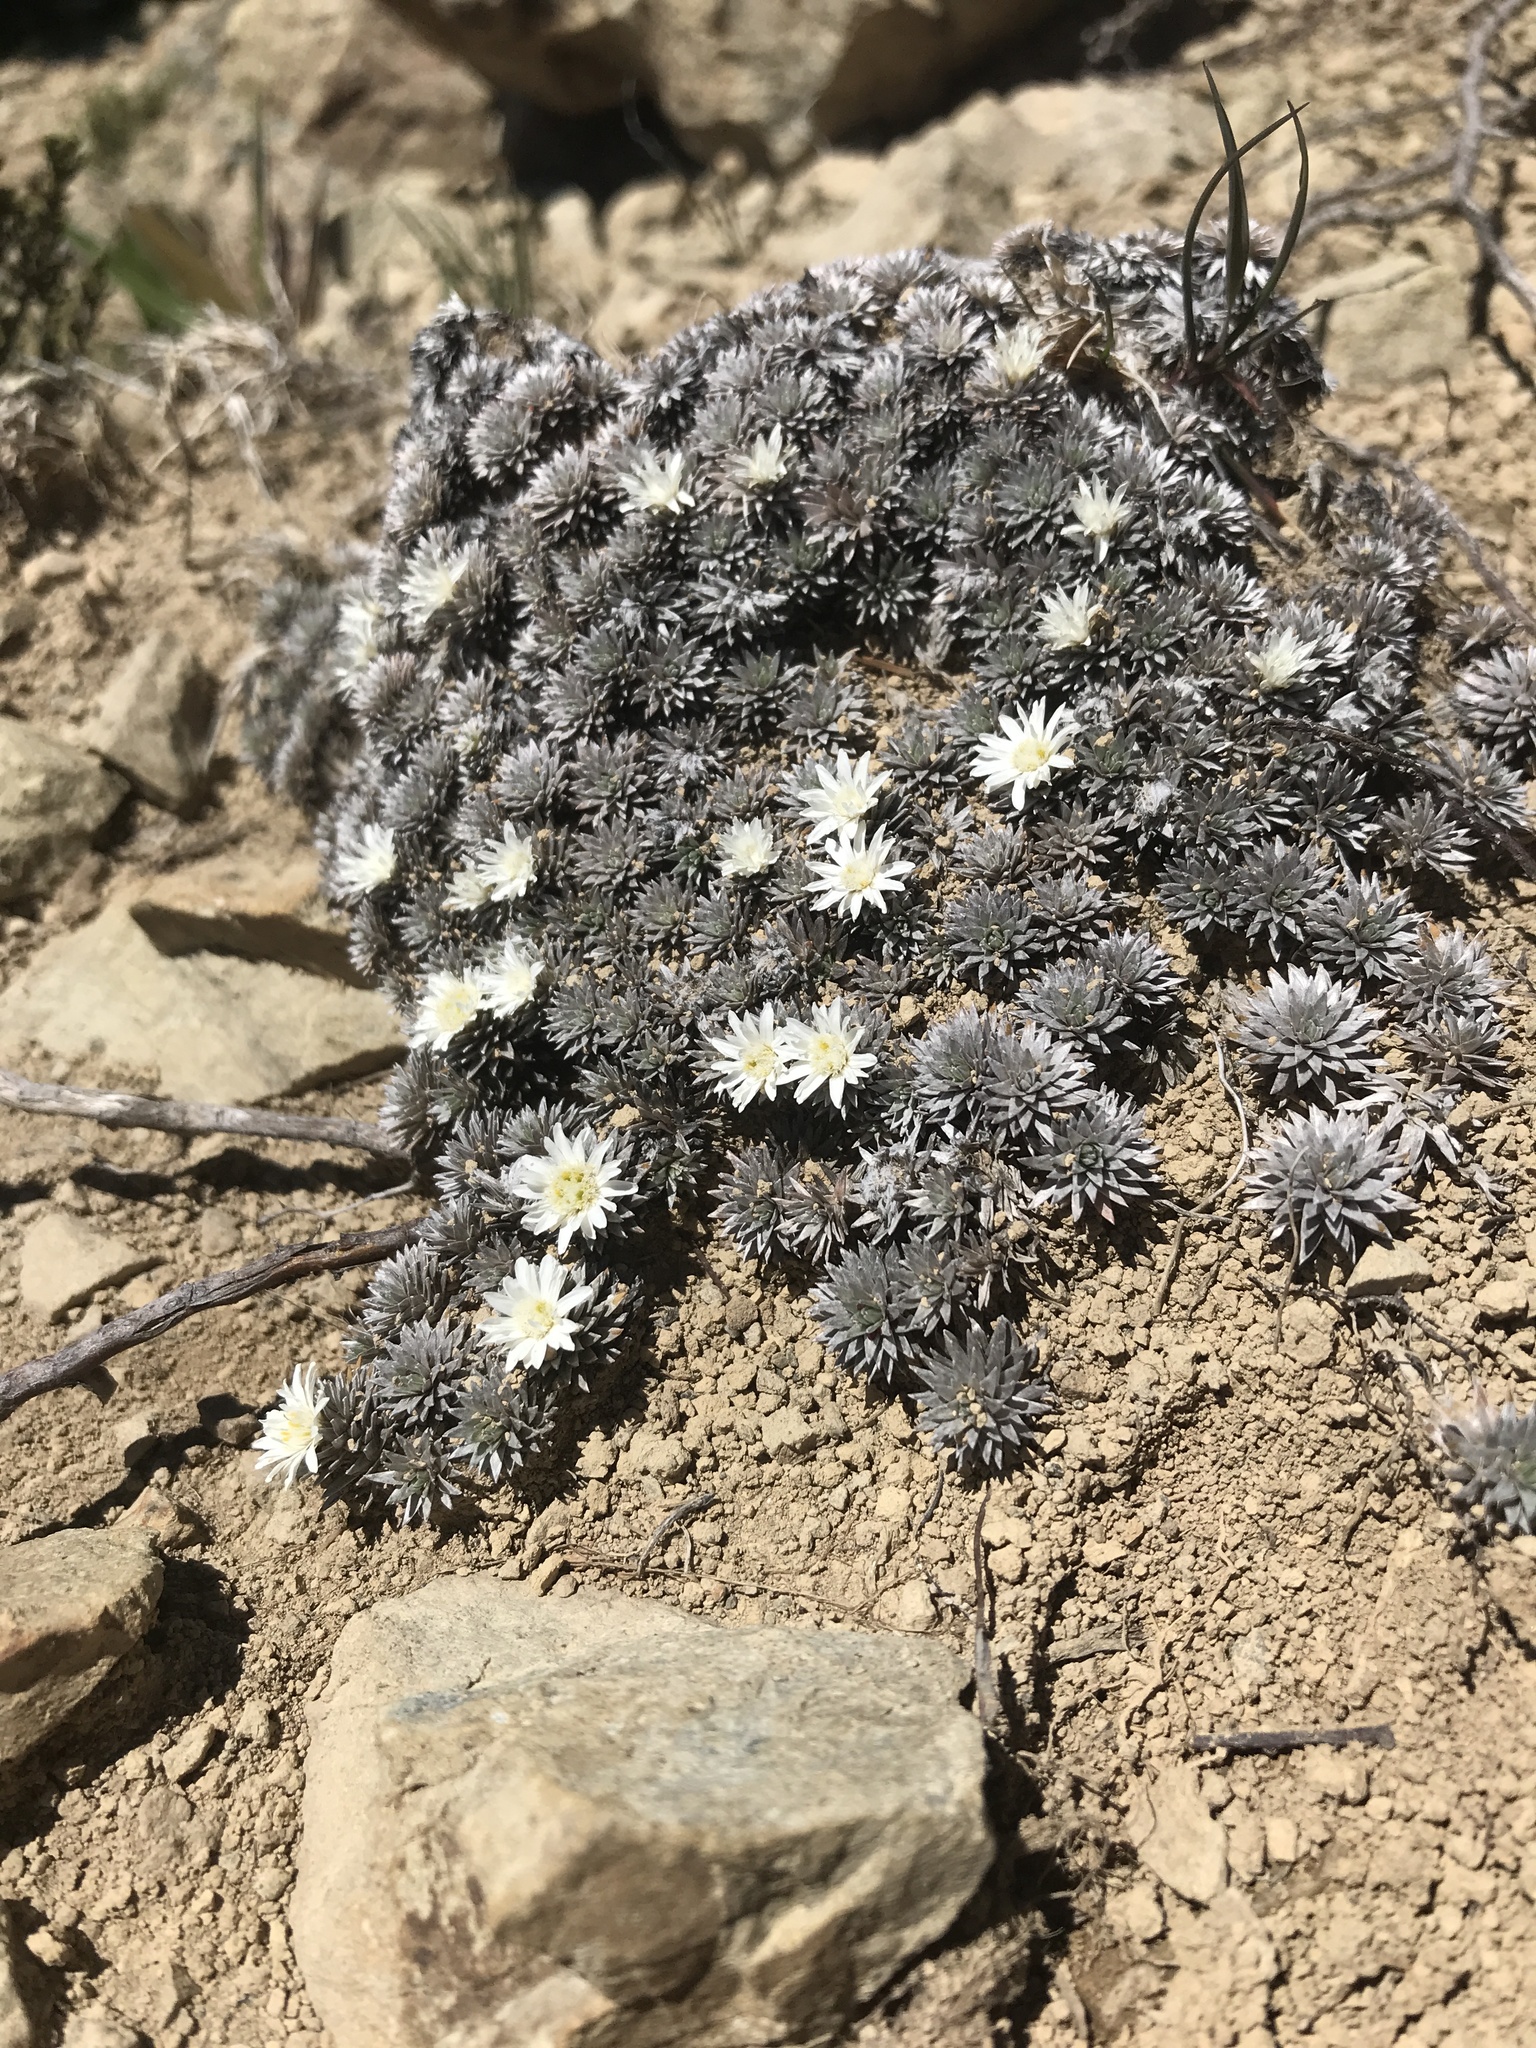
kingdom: Plantae
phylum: Tracheophyta
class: Magnoliopsida
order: Asterales
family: Asteraceae
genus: Raoulia
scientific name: Raoulia grandiflora
